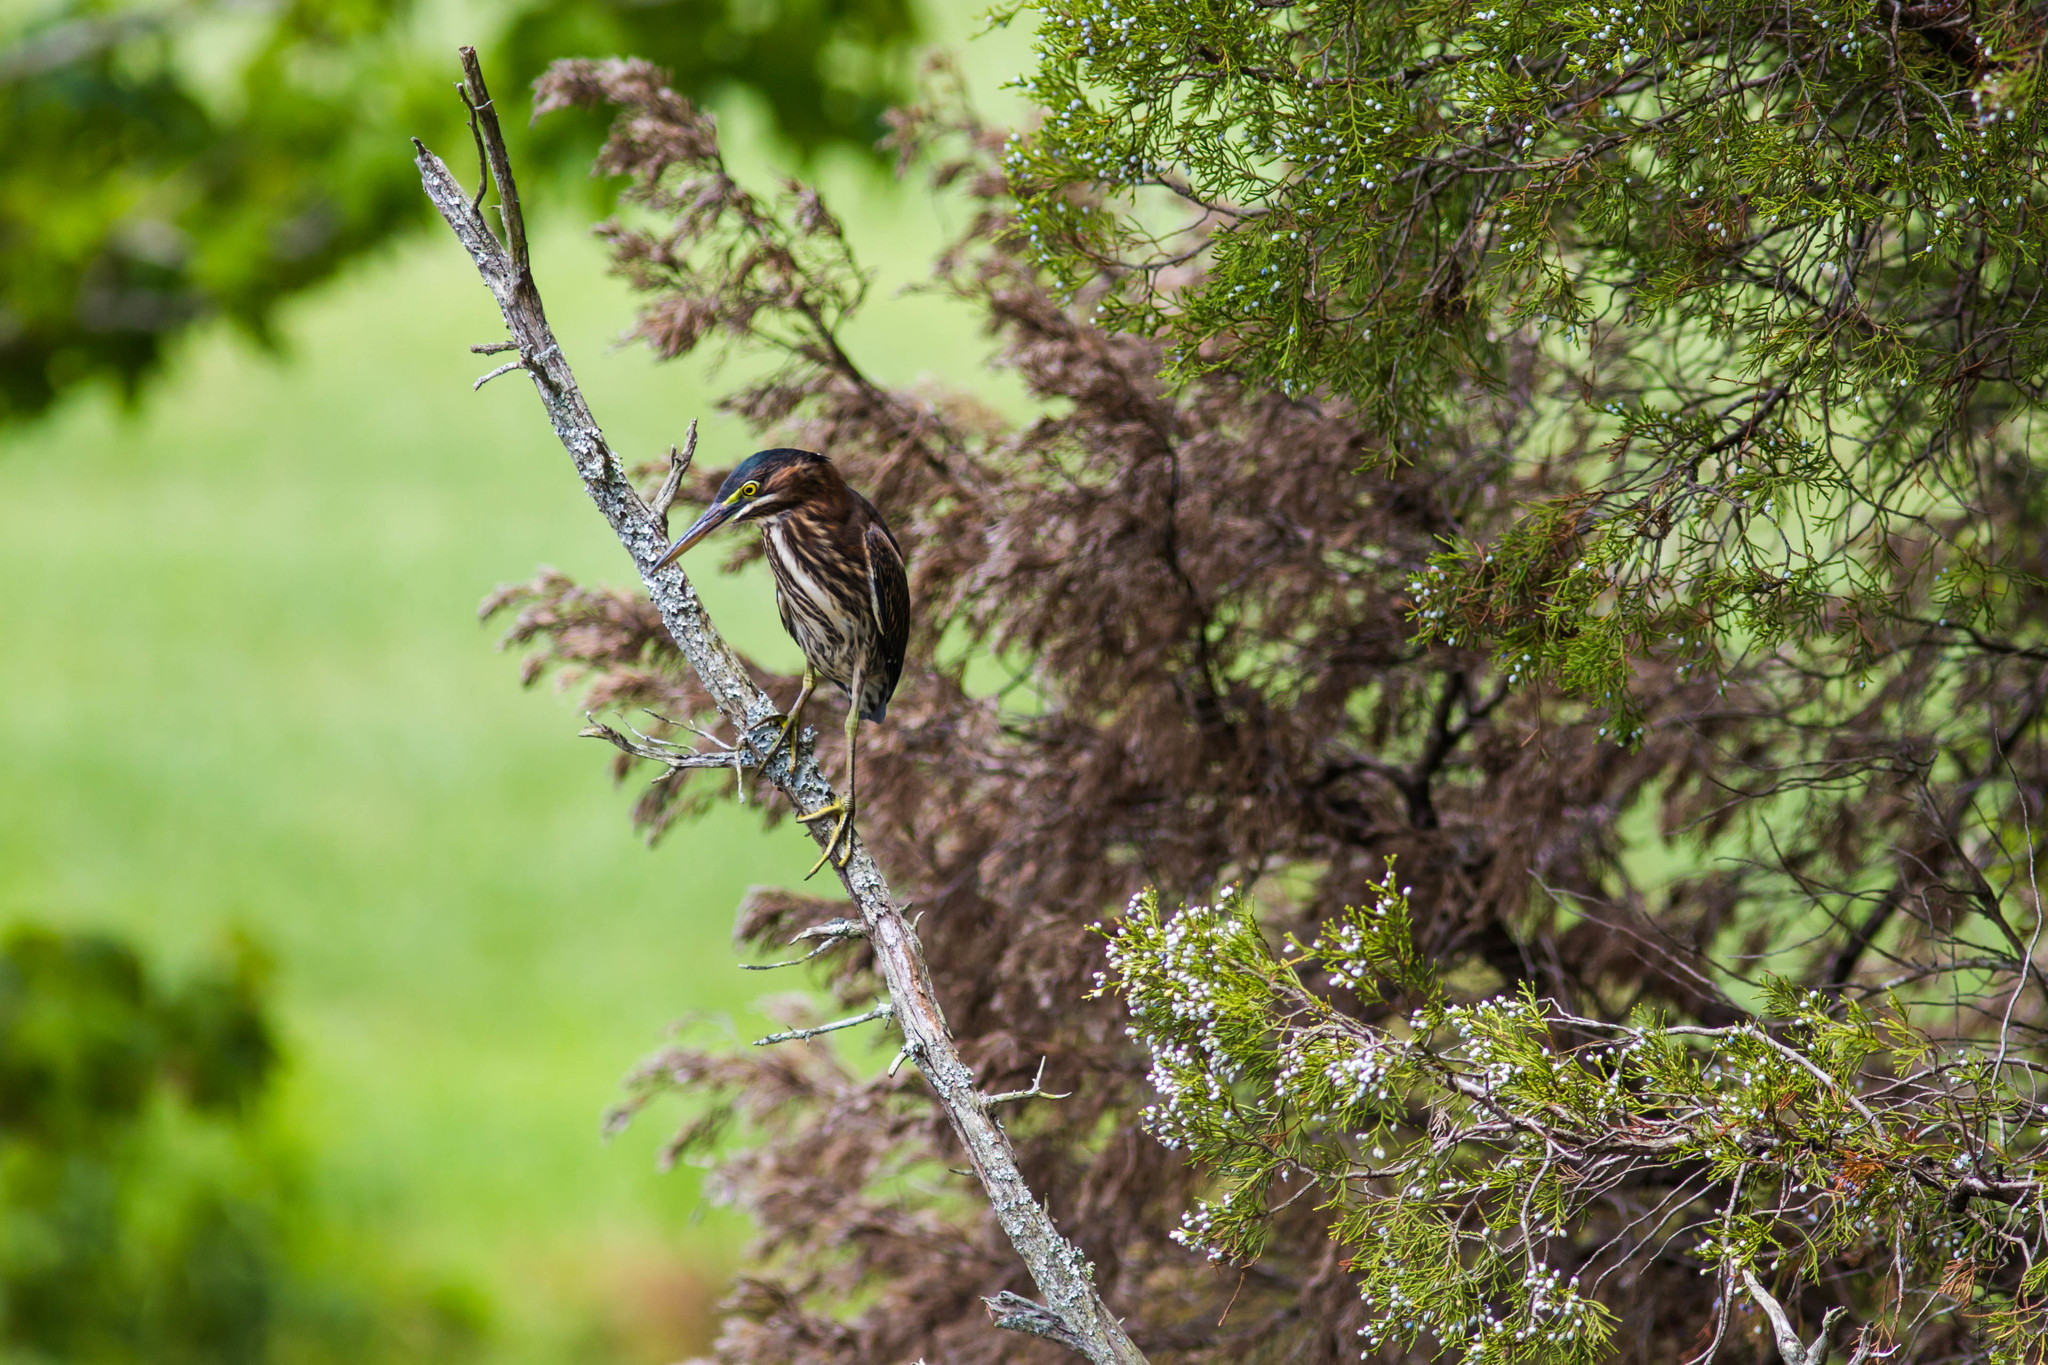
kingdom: Animalia
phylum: Chordata
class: Aves
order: Pelecaniformes
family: Ardeidae
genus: Butorides
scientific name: Butorides virescens
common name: Green heron
